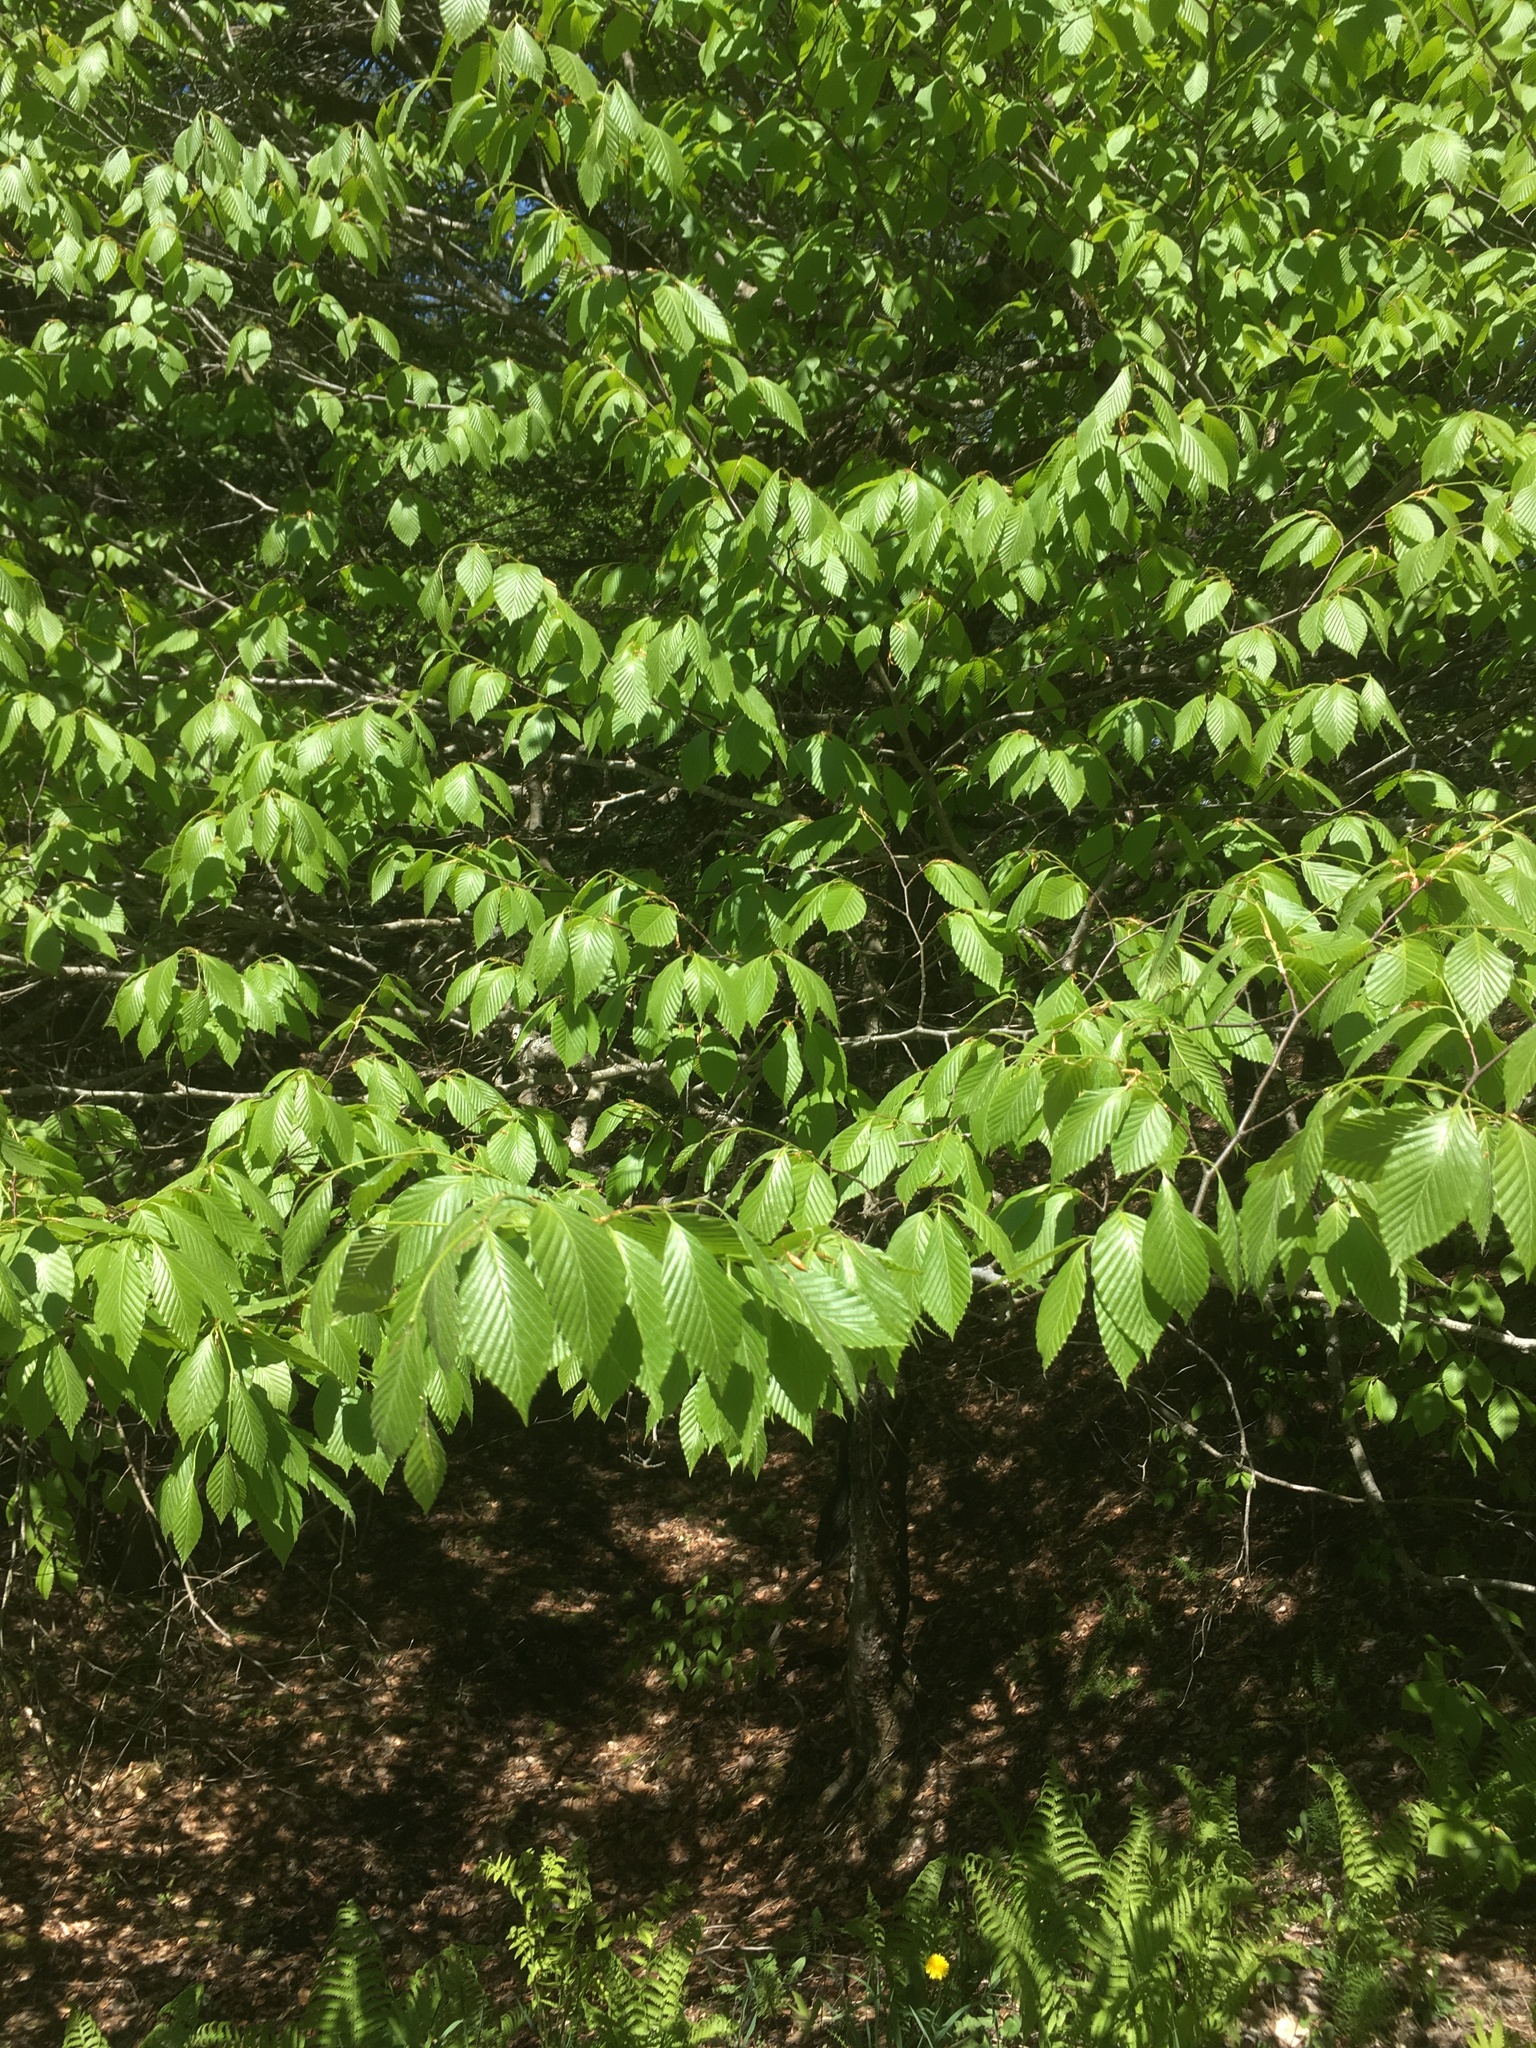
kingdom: Plantae
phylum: Tracheophyta
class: Magnoliopsida
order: Fagales
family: Fagaceae
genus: Fagus
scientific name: Fagus grandifolia
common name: American beech
